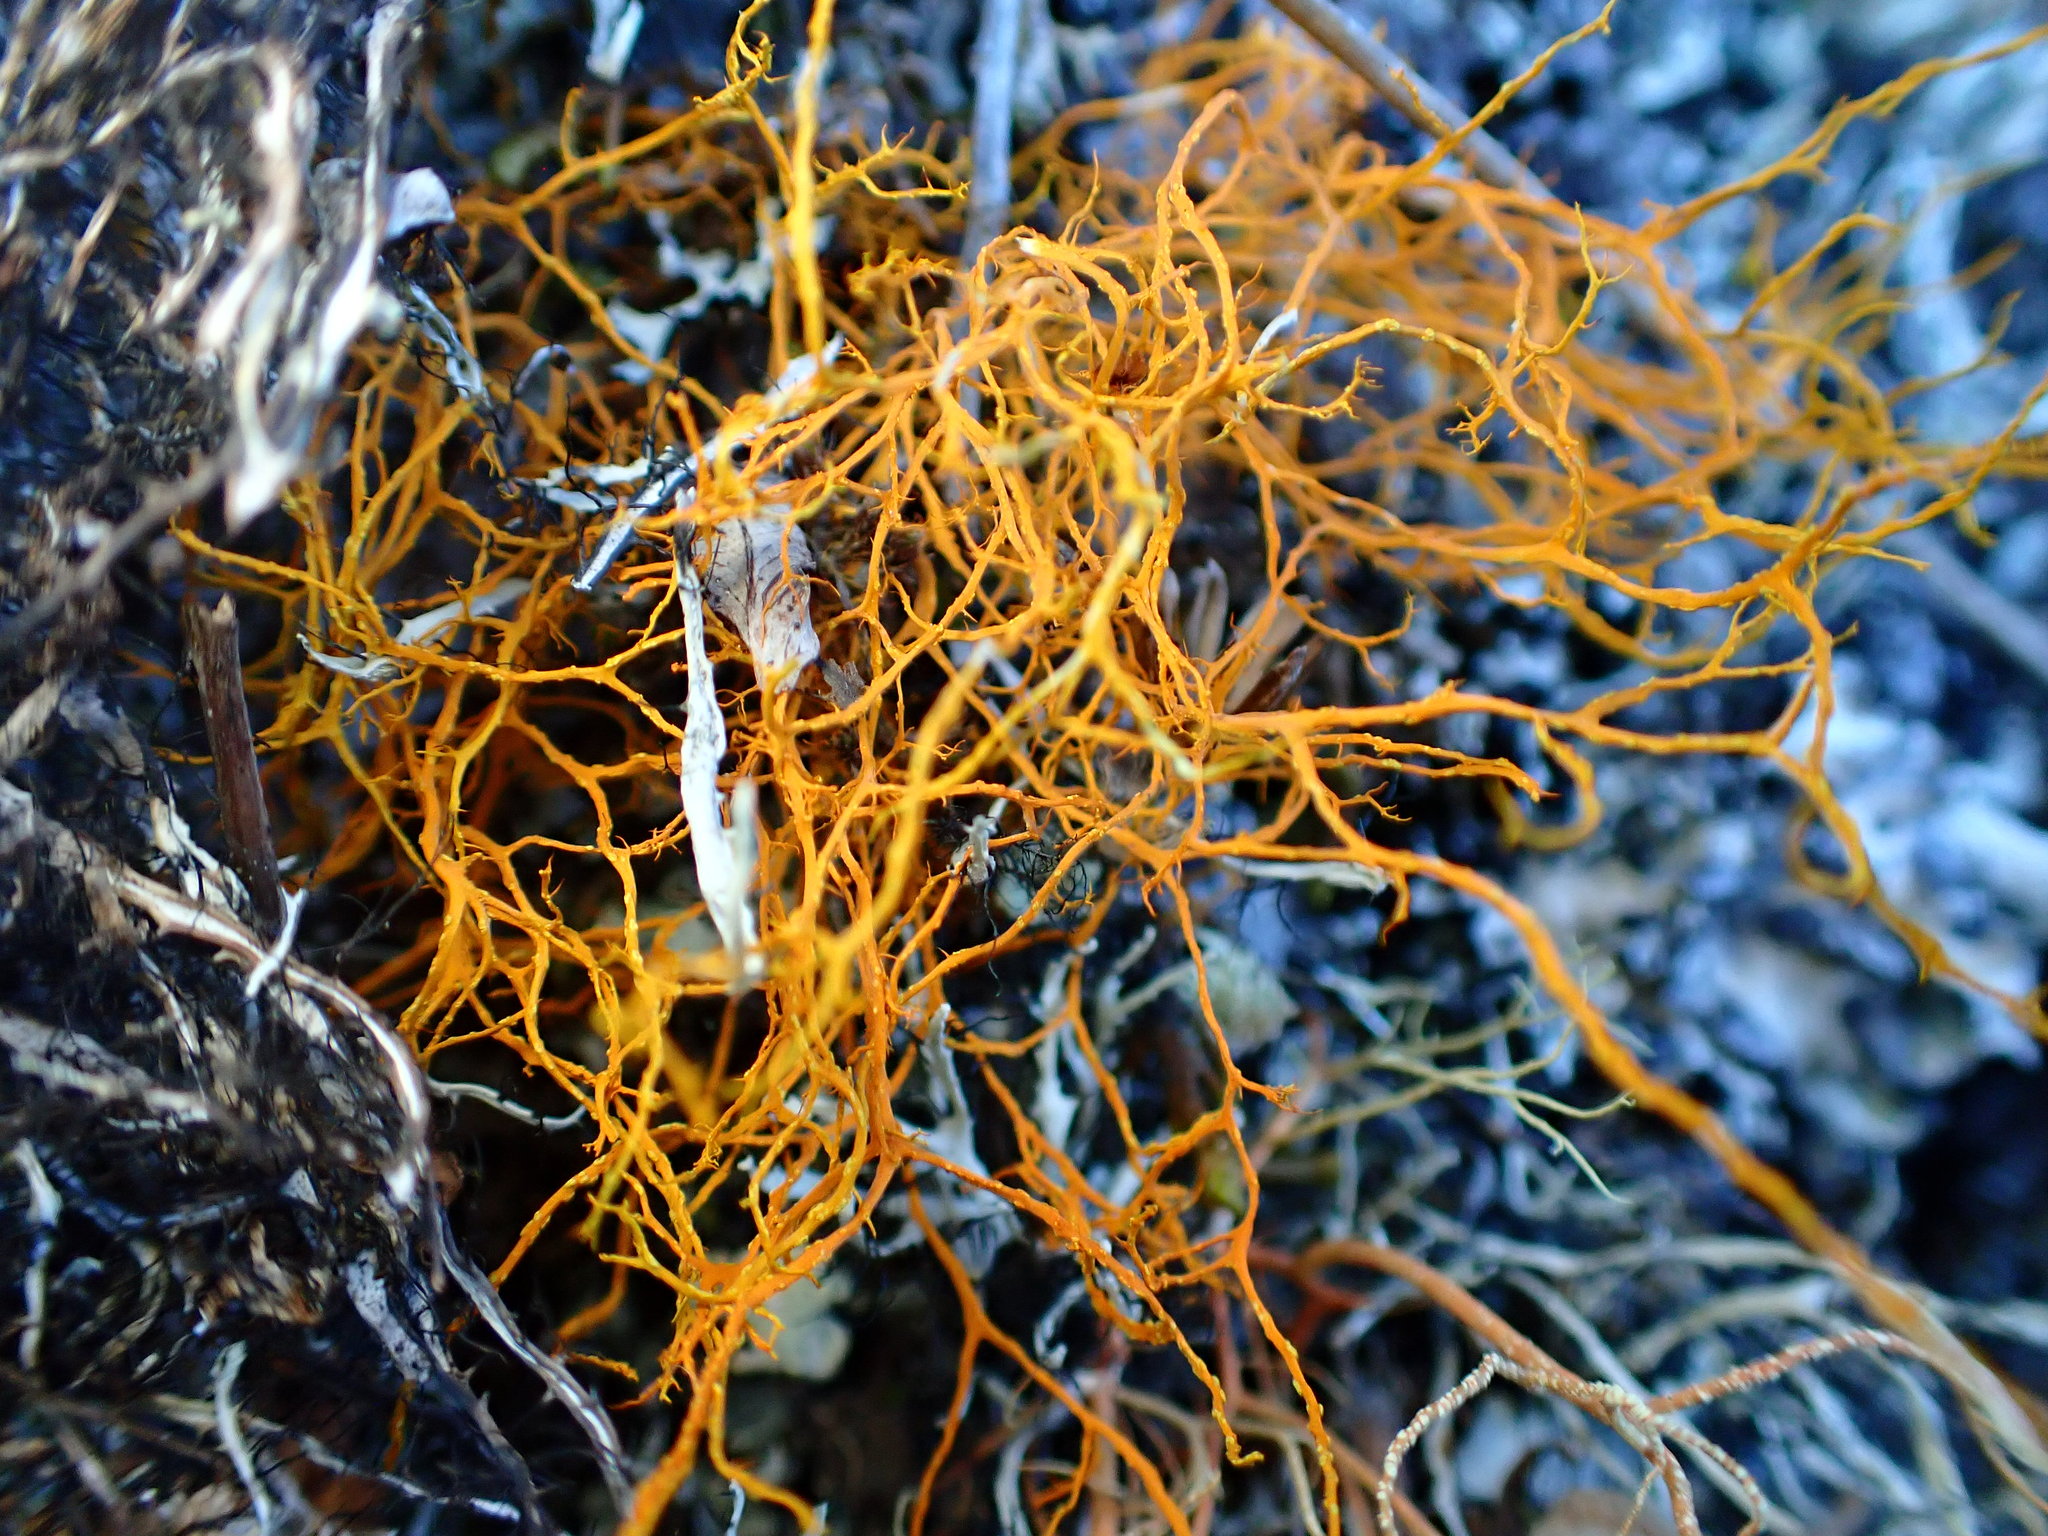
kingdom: Fungi
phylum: Ascomycota
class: Lecanoromycetes
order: Teloschistales
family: Teloschistaceae
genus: Teloschistes
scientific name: Teloschistes flavicans
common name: Golden hair-lichen
